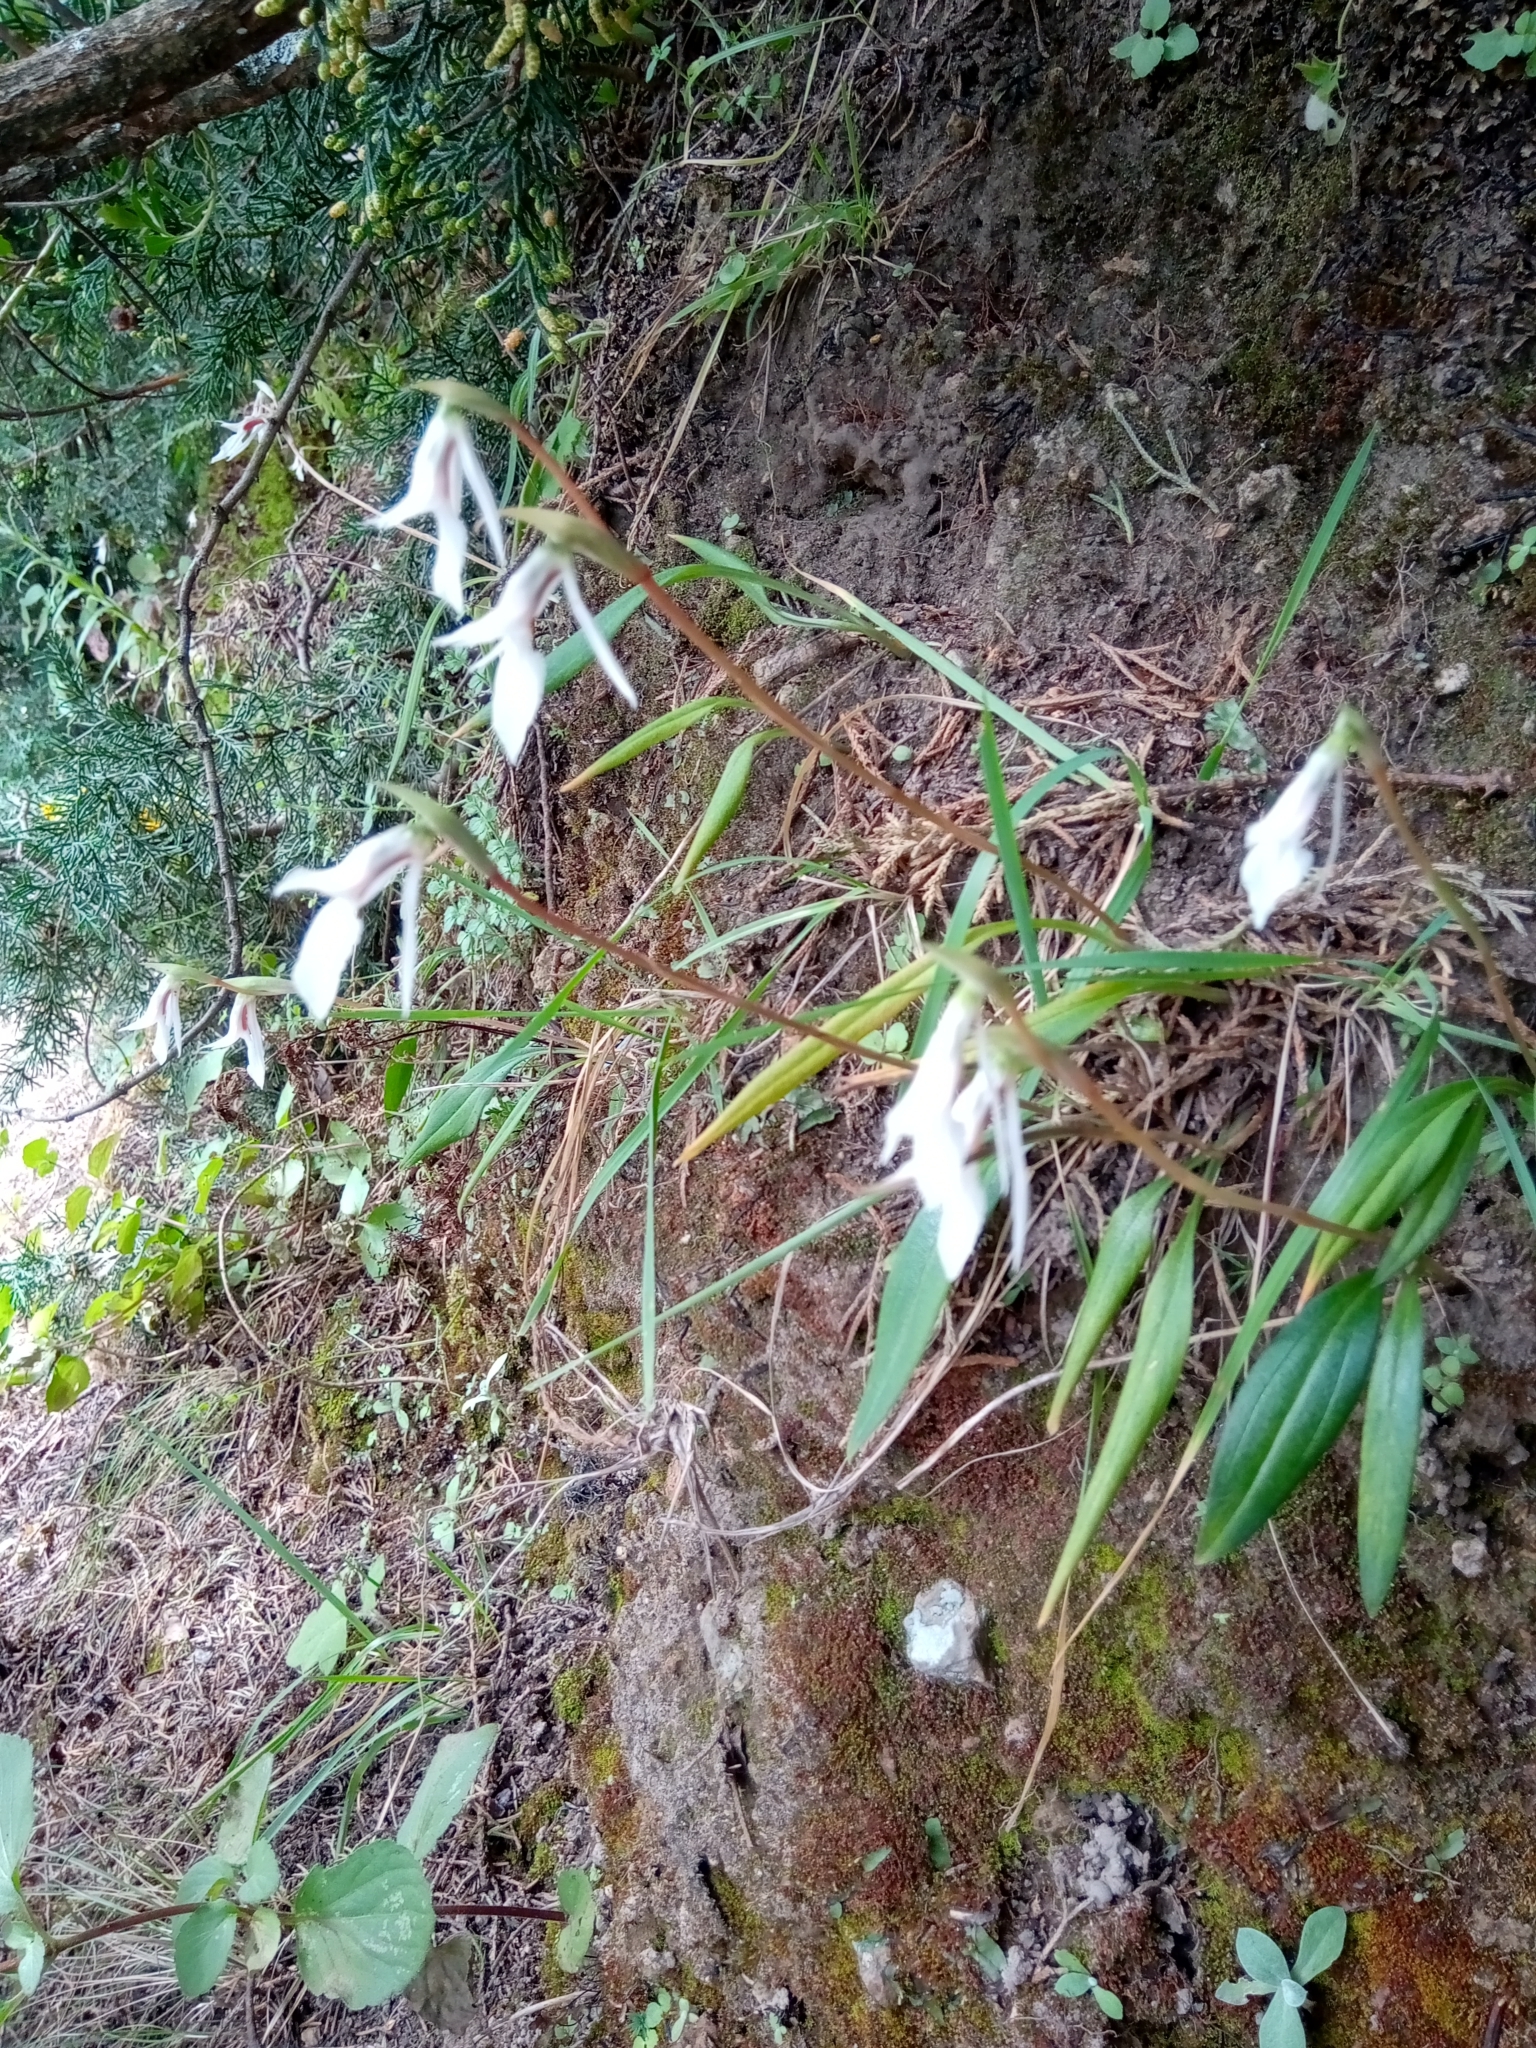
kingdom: Plantae
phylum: Tracheophyta
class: Liliopsida
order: Asparagales
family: Orchidaceae
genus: Funkiella
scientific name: Funkiella hyemalis
